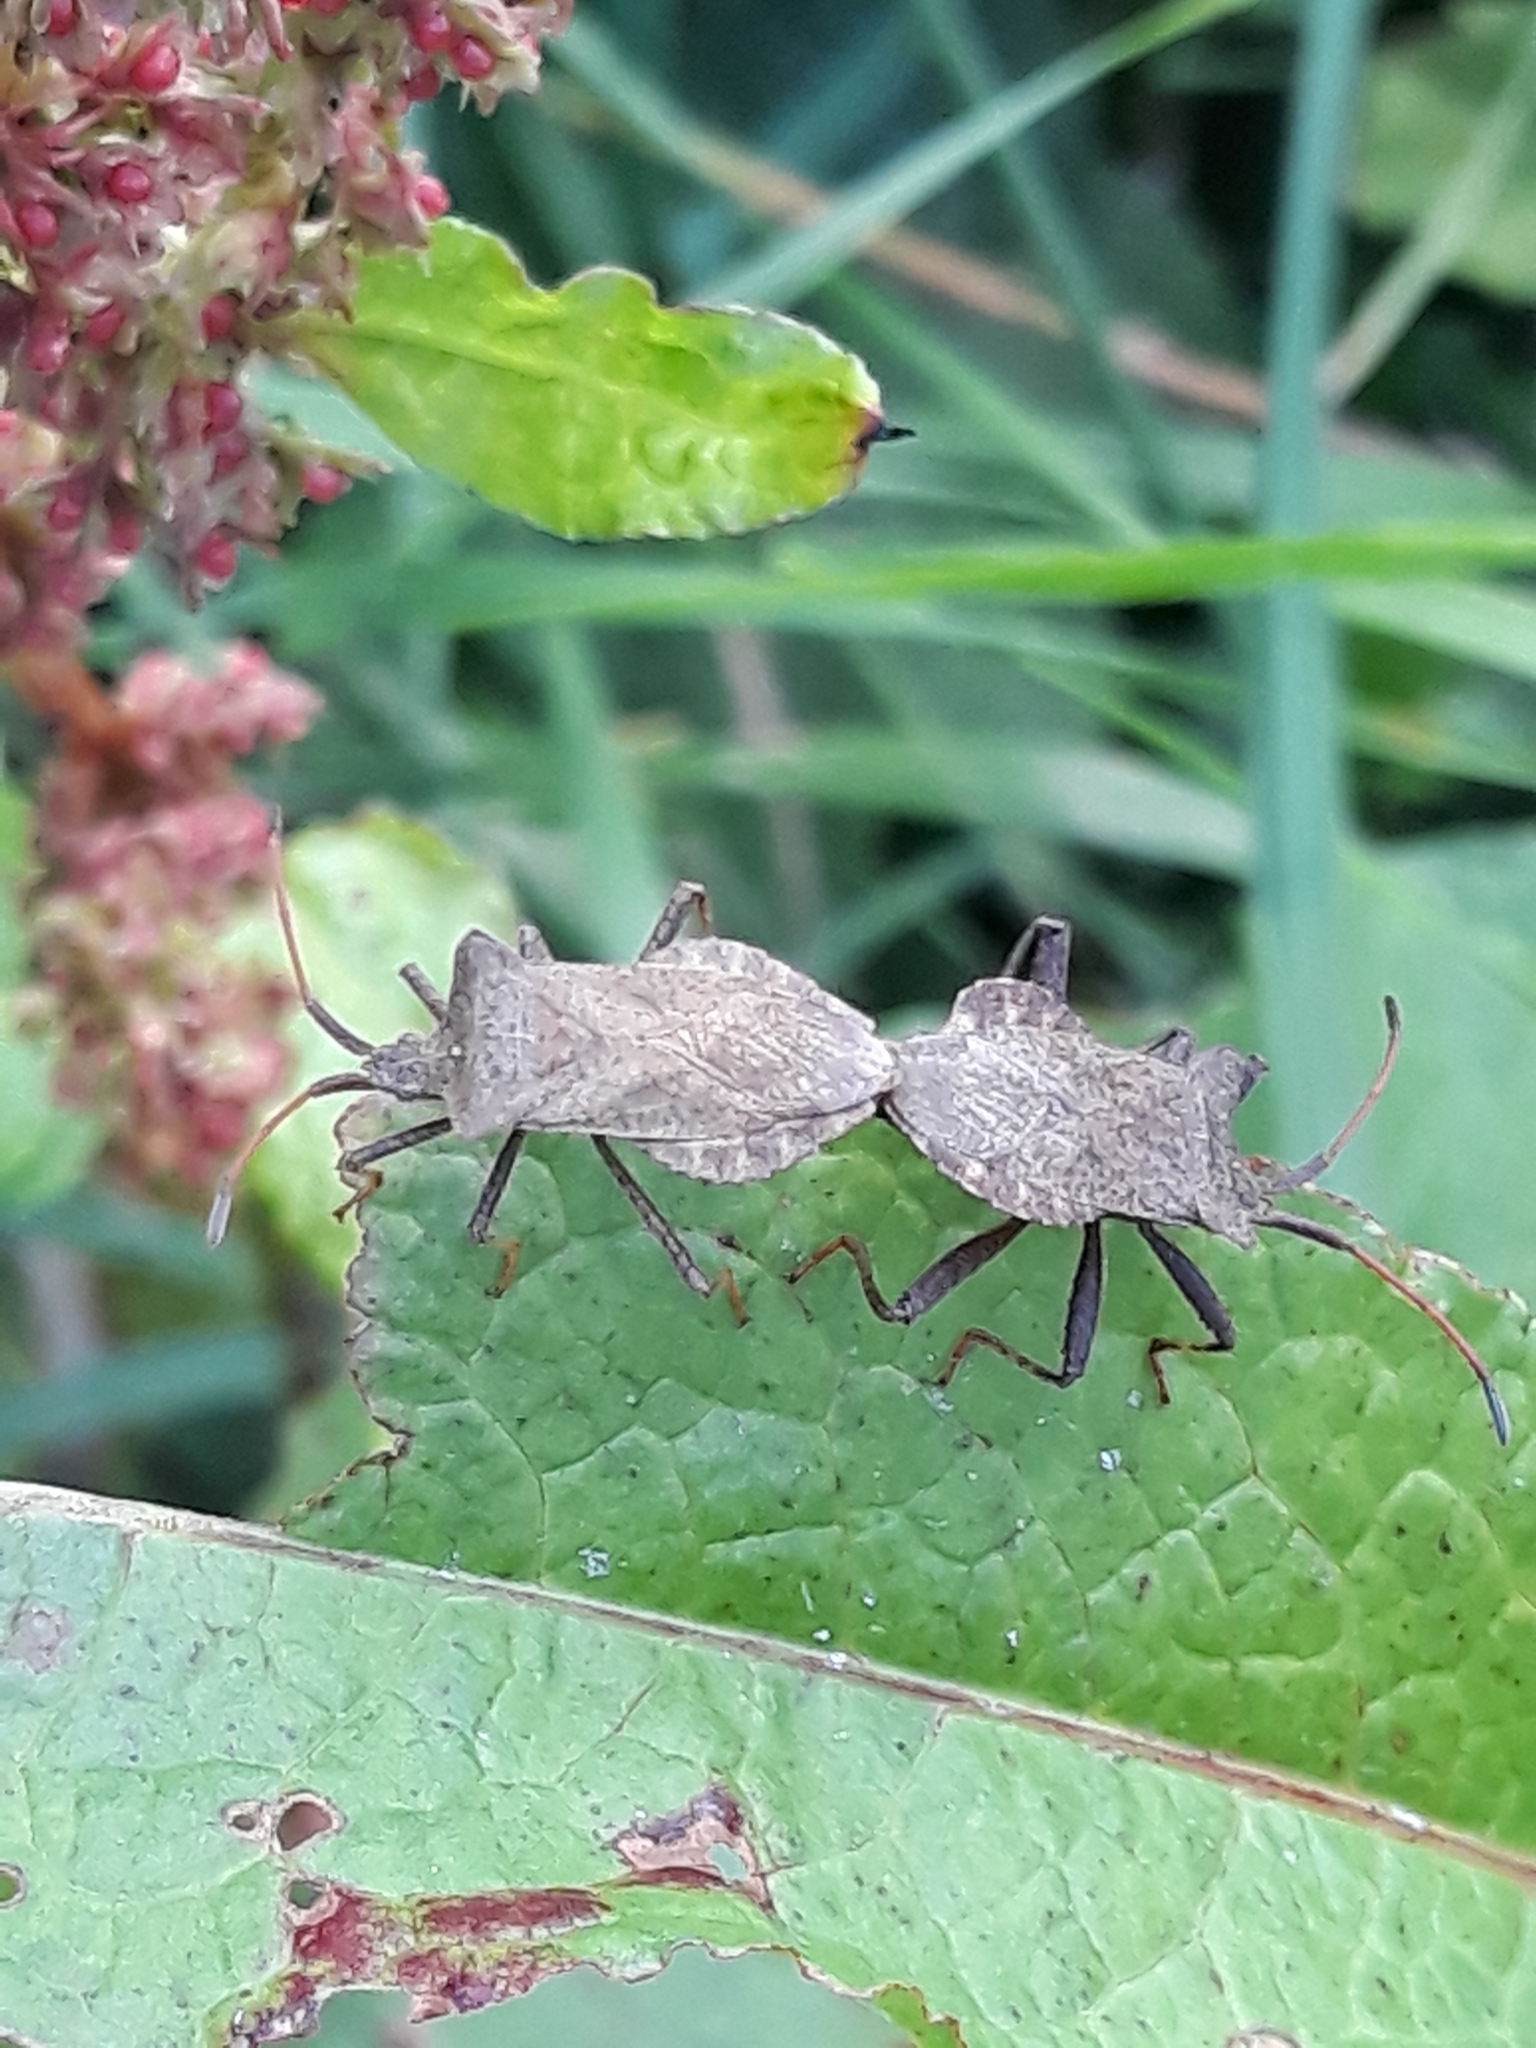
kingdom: Animalia
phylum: Arthropoda
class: Insecta
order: Hemiptera
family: Coreidae
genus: Coreus
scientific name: Coreus marginatus
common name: Dock bug
